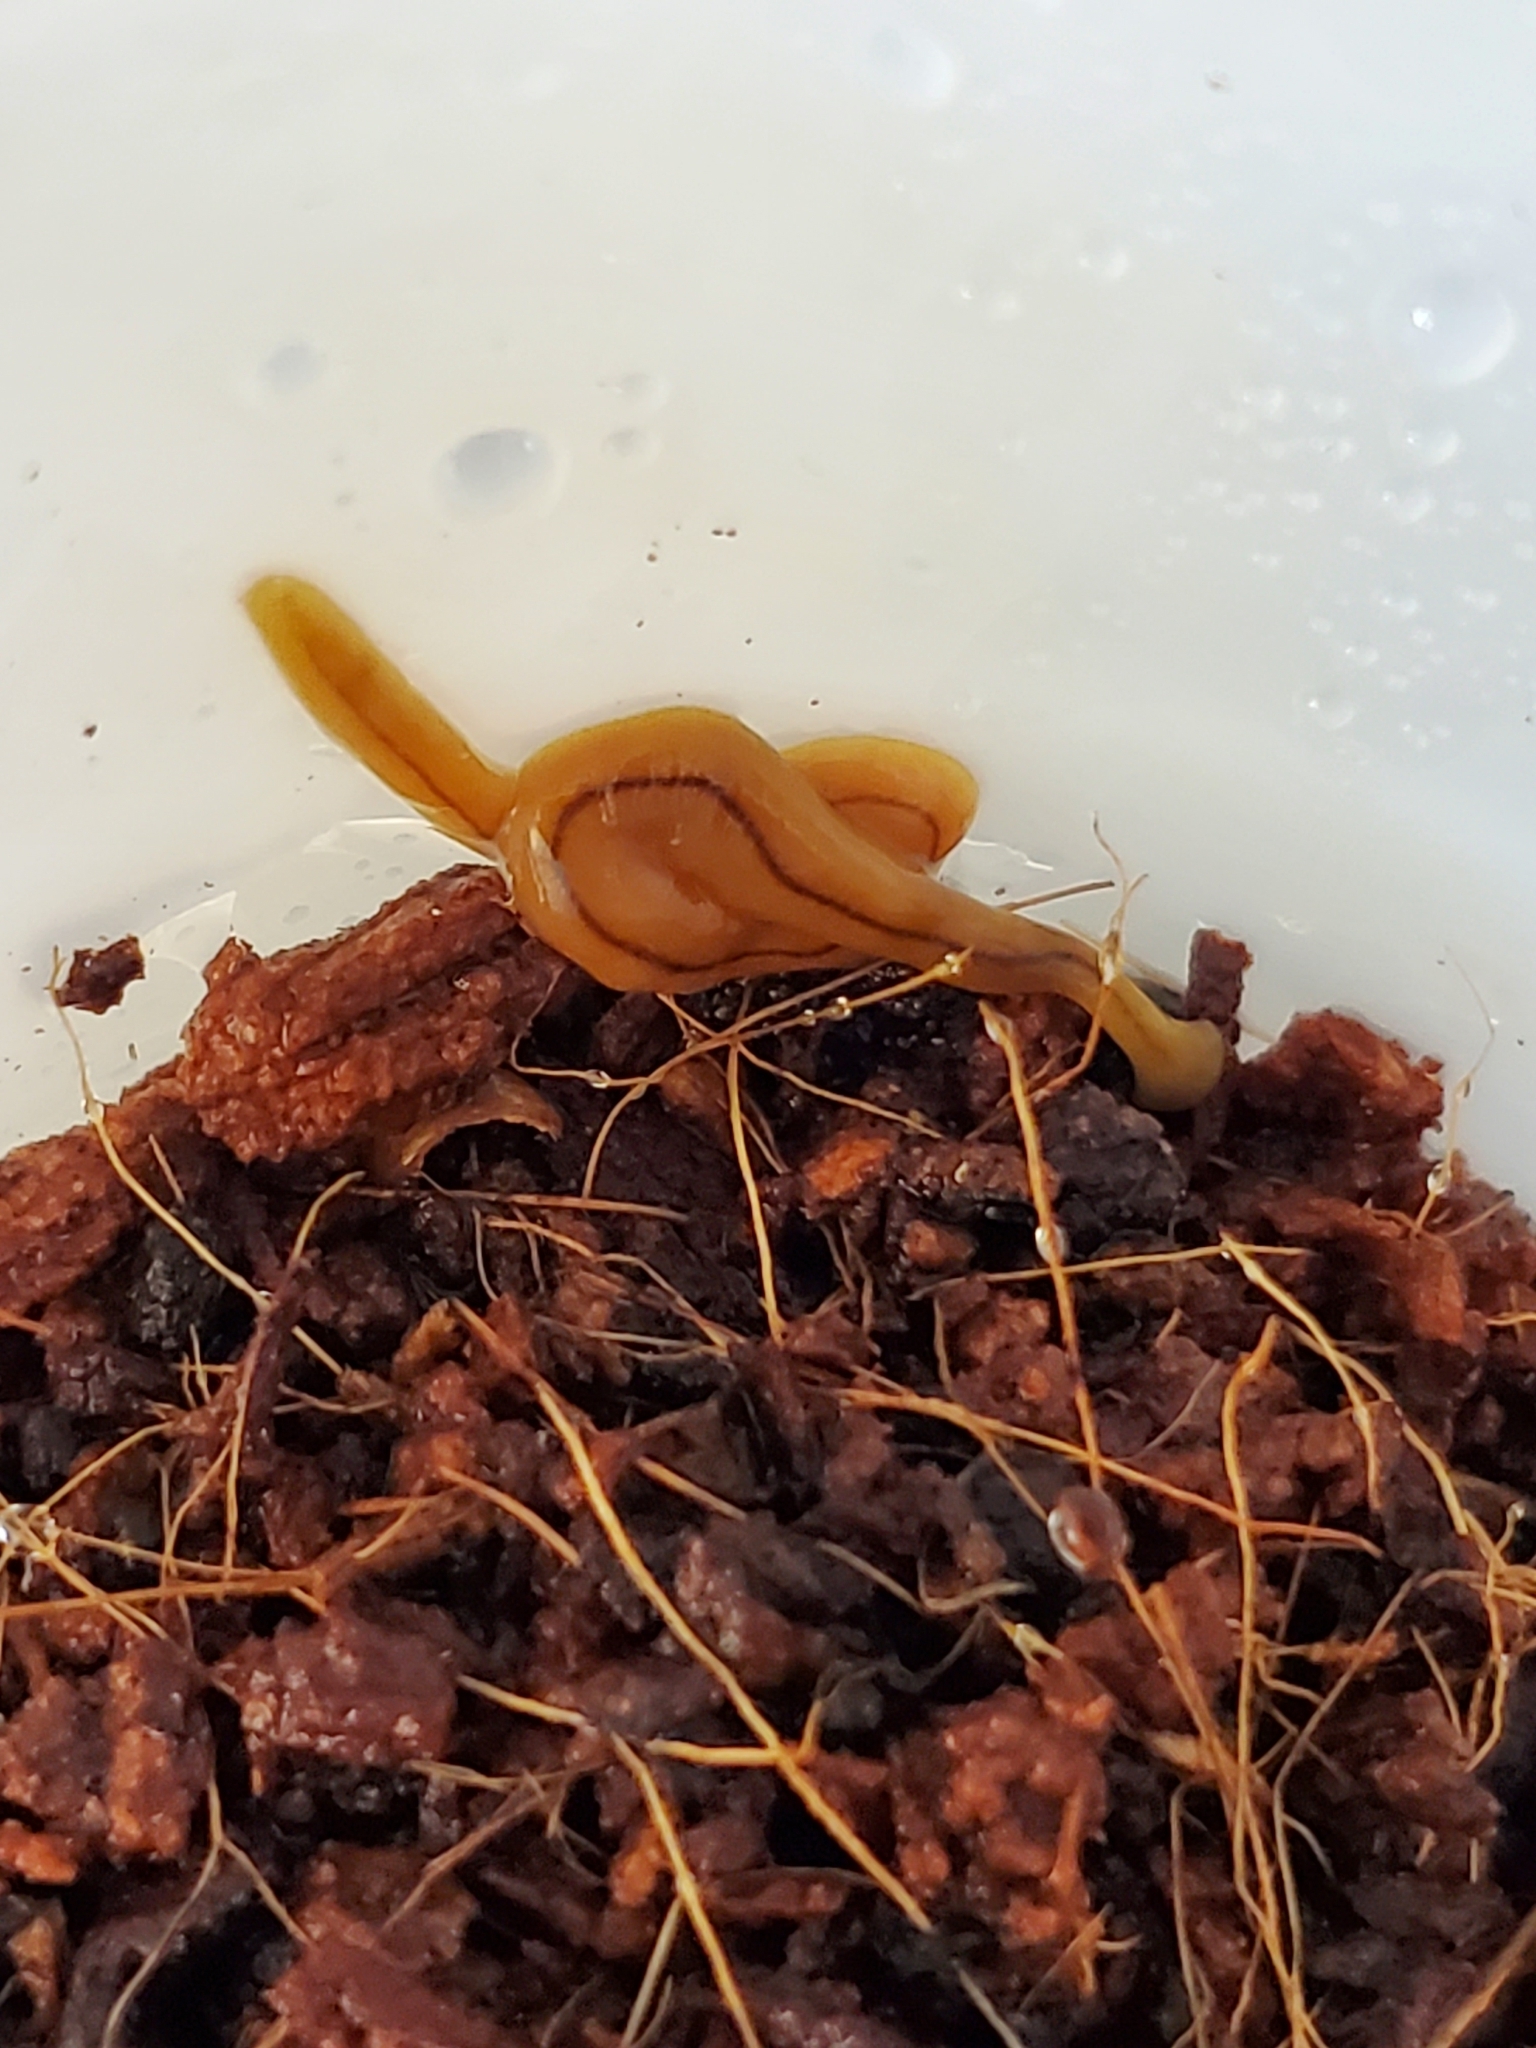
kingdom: Animalia
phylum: Platyhelminthes
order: Tricladida
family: Geoplanidae
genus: Bipalium
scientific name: Bipalium adventitium
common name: Land planarian
